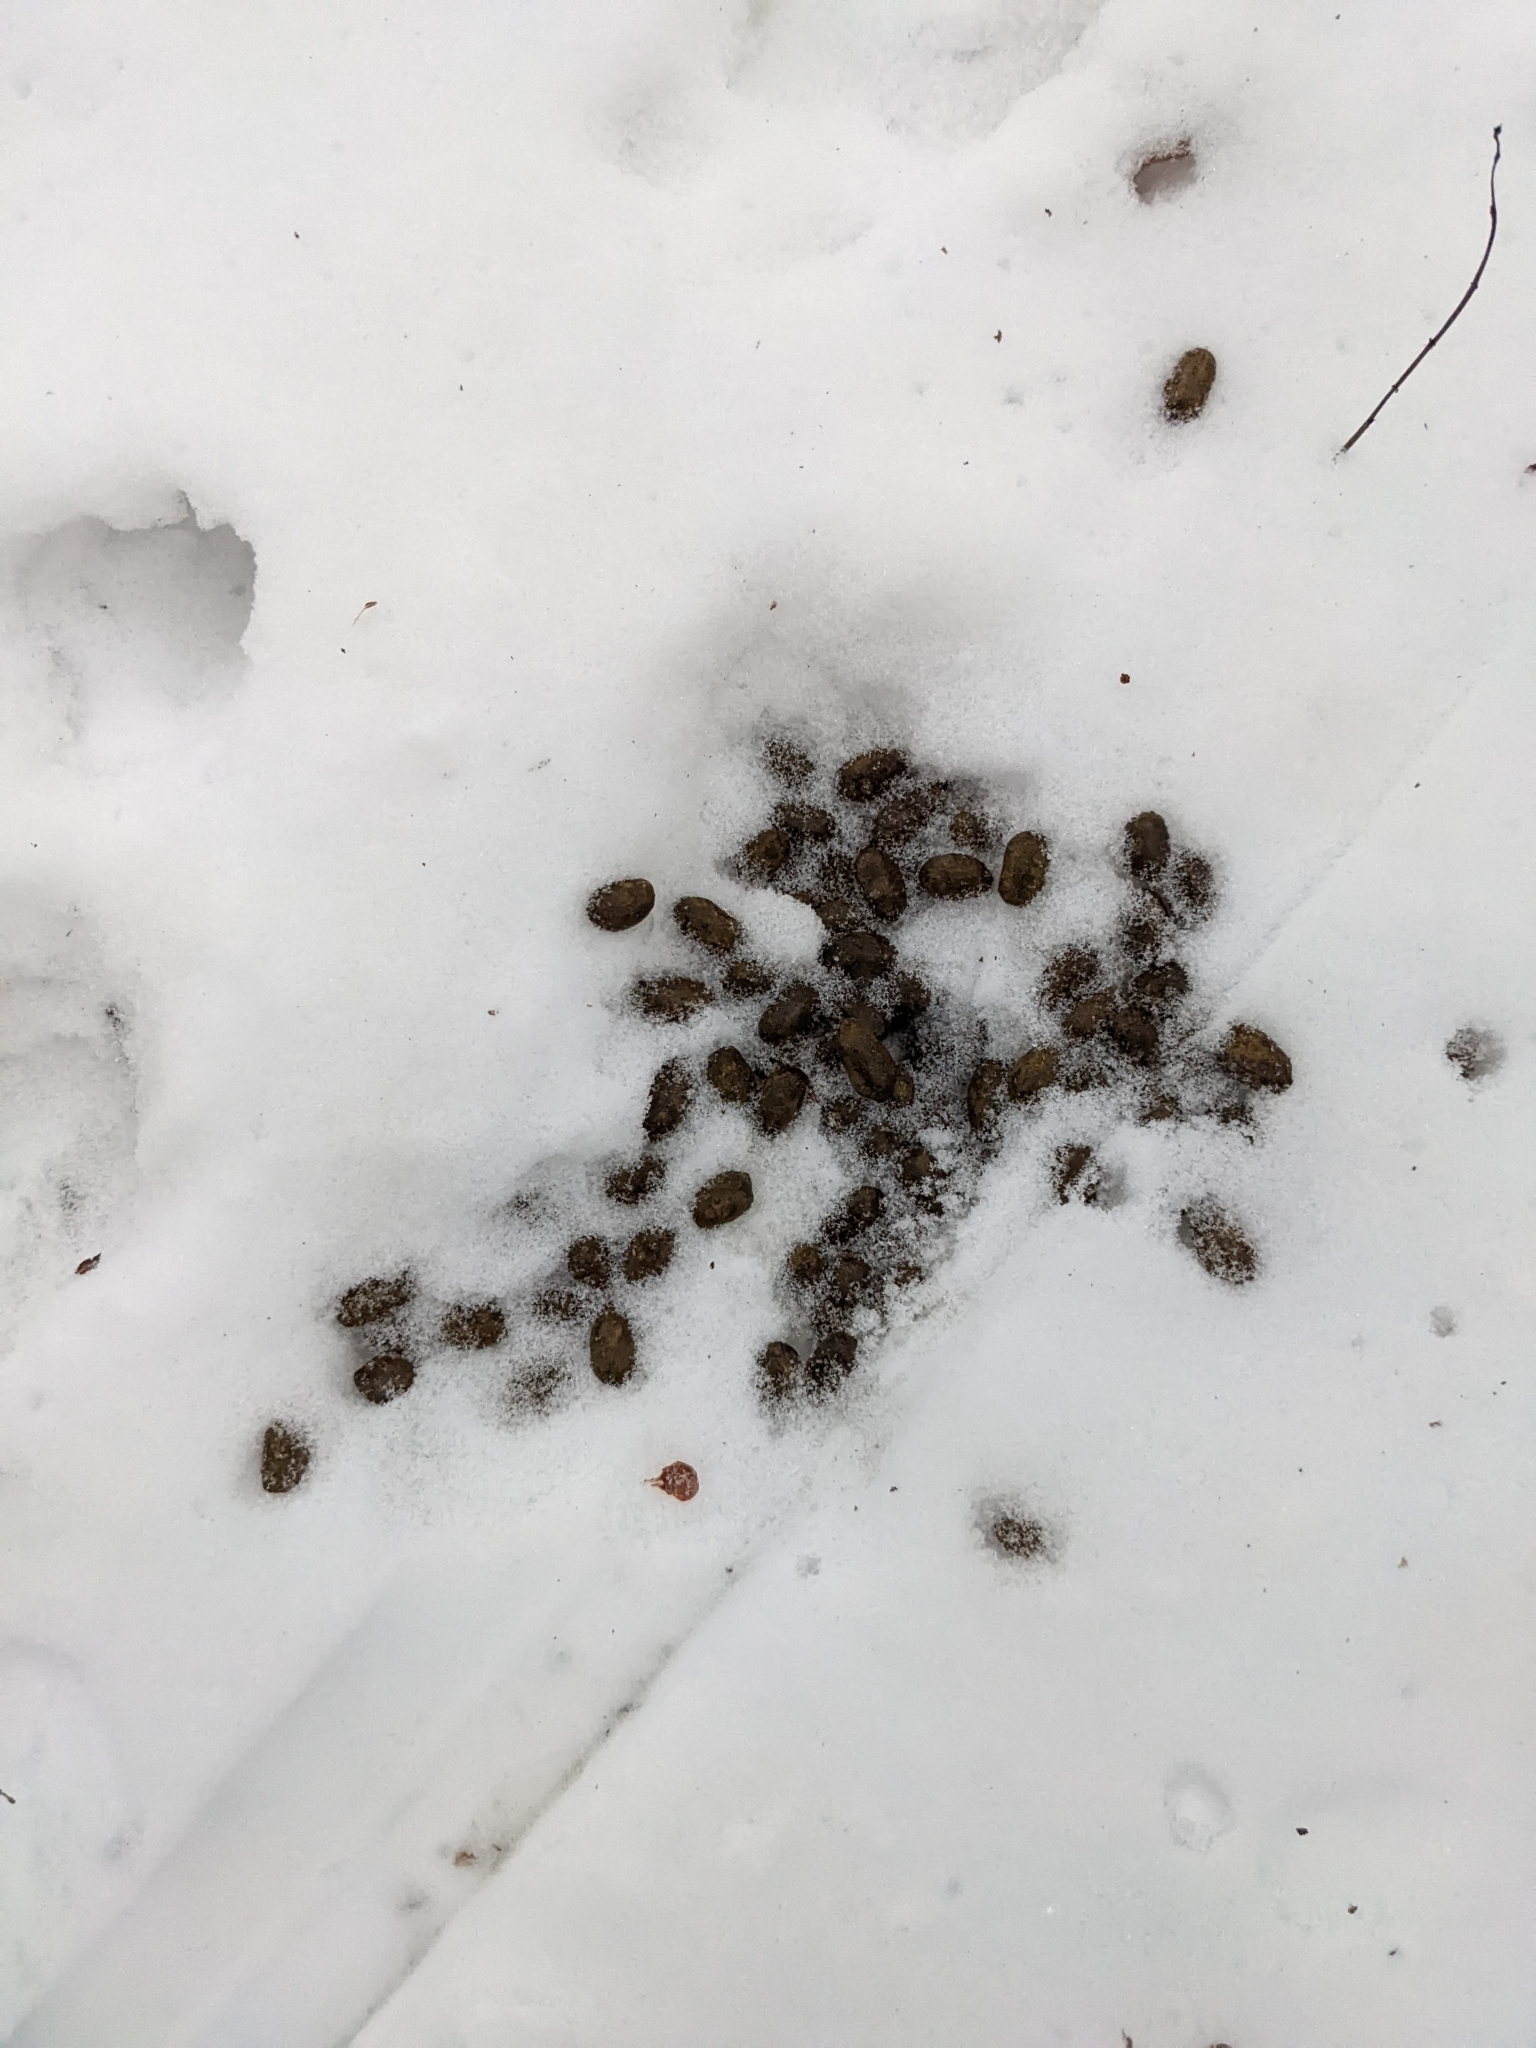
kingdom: Animalia
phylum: Chordata
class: Mammalia
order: Artiodactyla
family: Cervidae
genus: Odocoileus
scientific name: Odocoileus virginianus
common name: White-tailed deer
